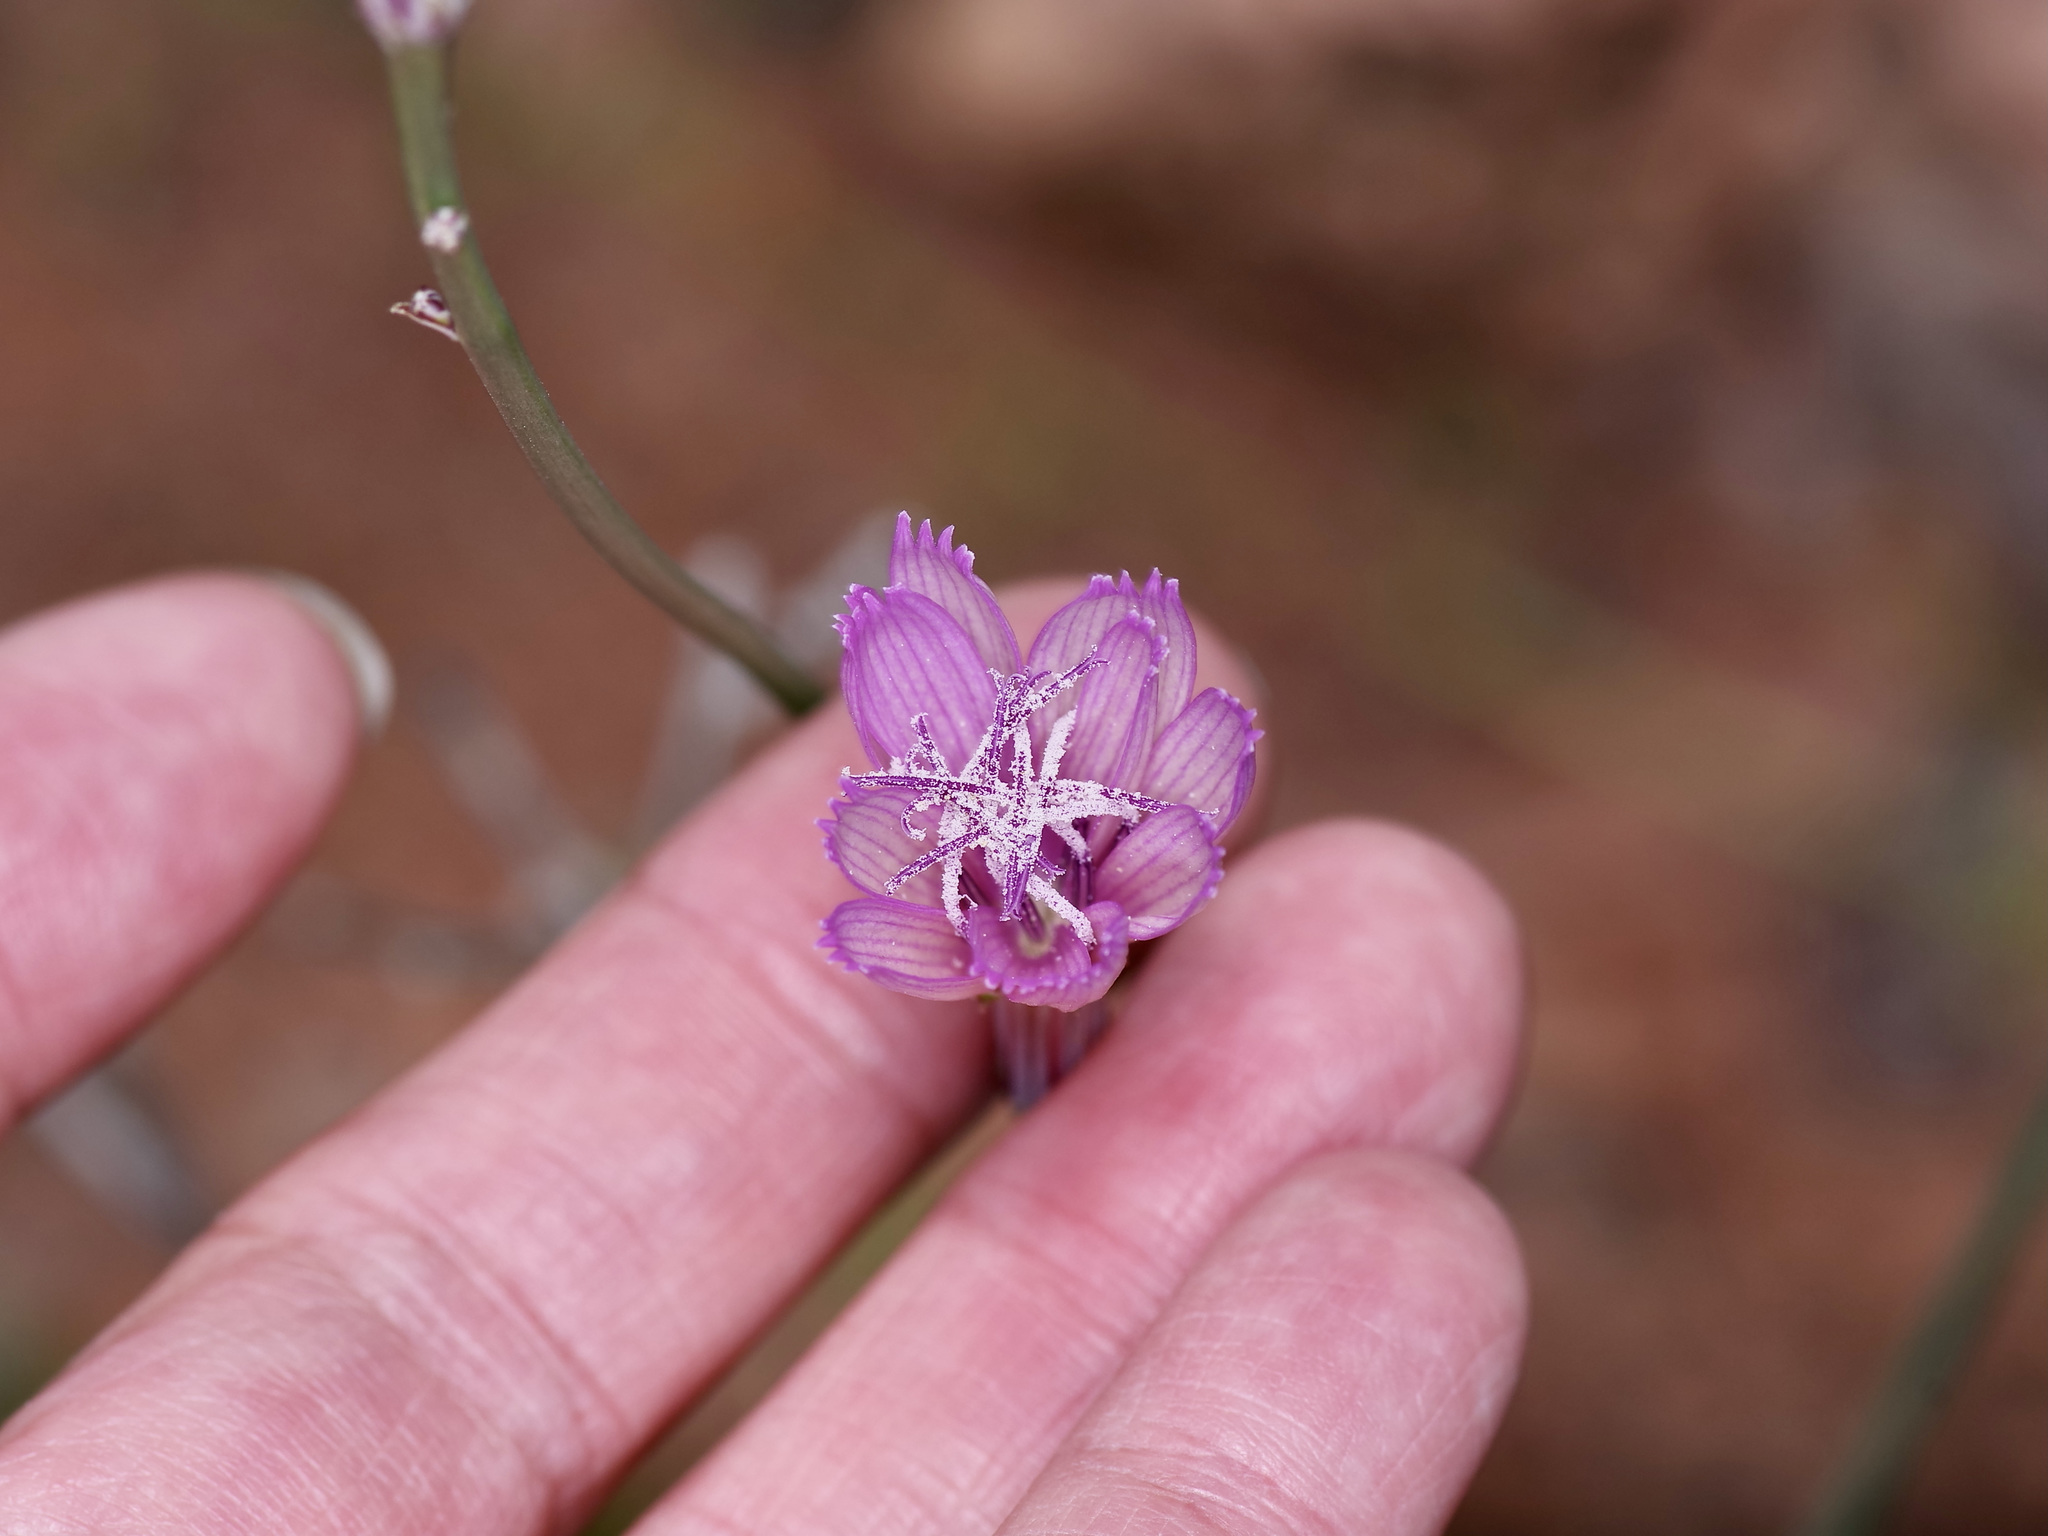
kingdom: Plantae
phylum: Tracheophyta
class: Magnoliopsida
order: Asterales
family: Asteraceae
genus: Lygodesmia
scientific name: Lygodesmia texana
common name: Texas skeleton-plant
